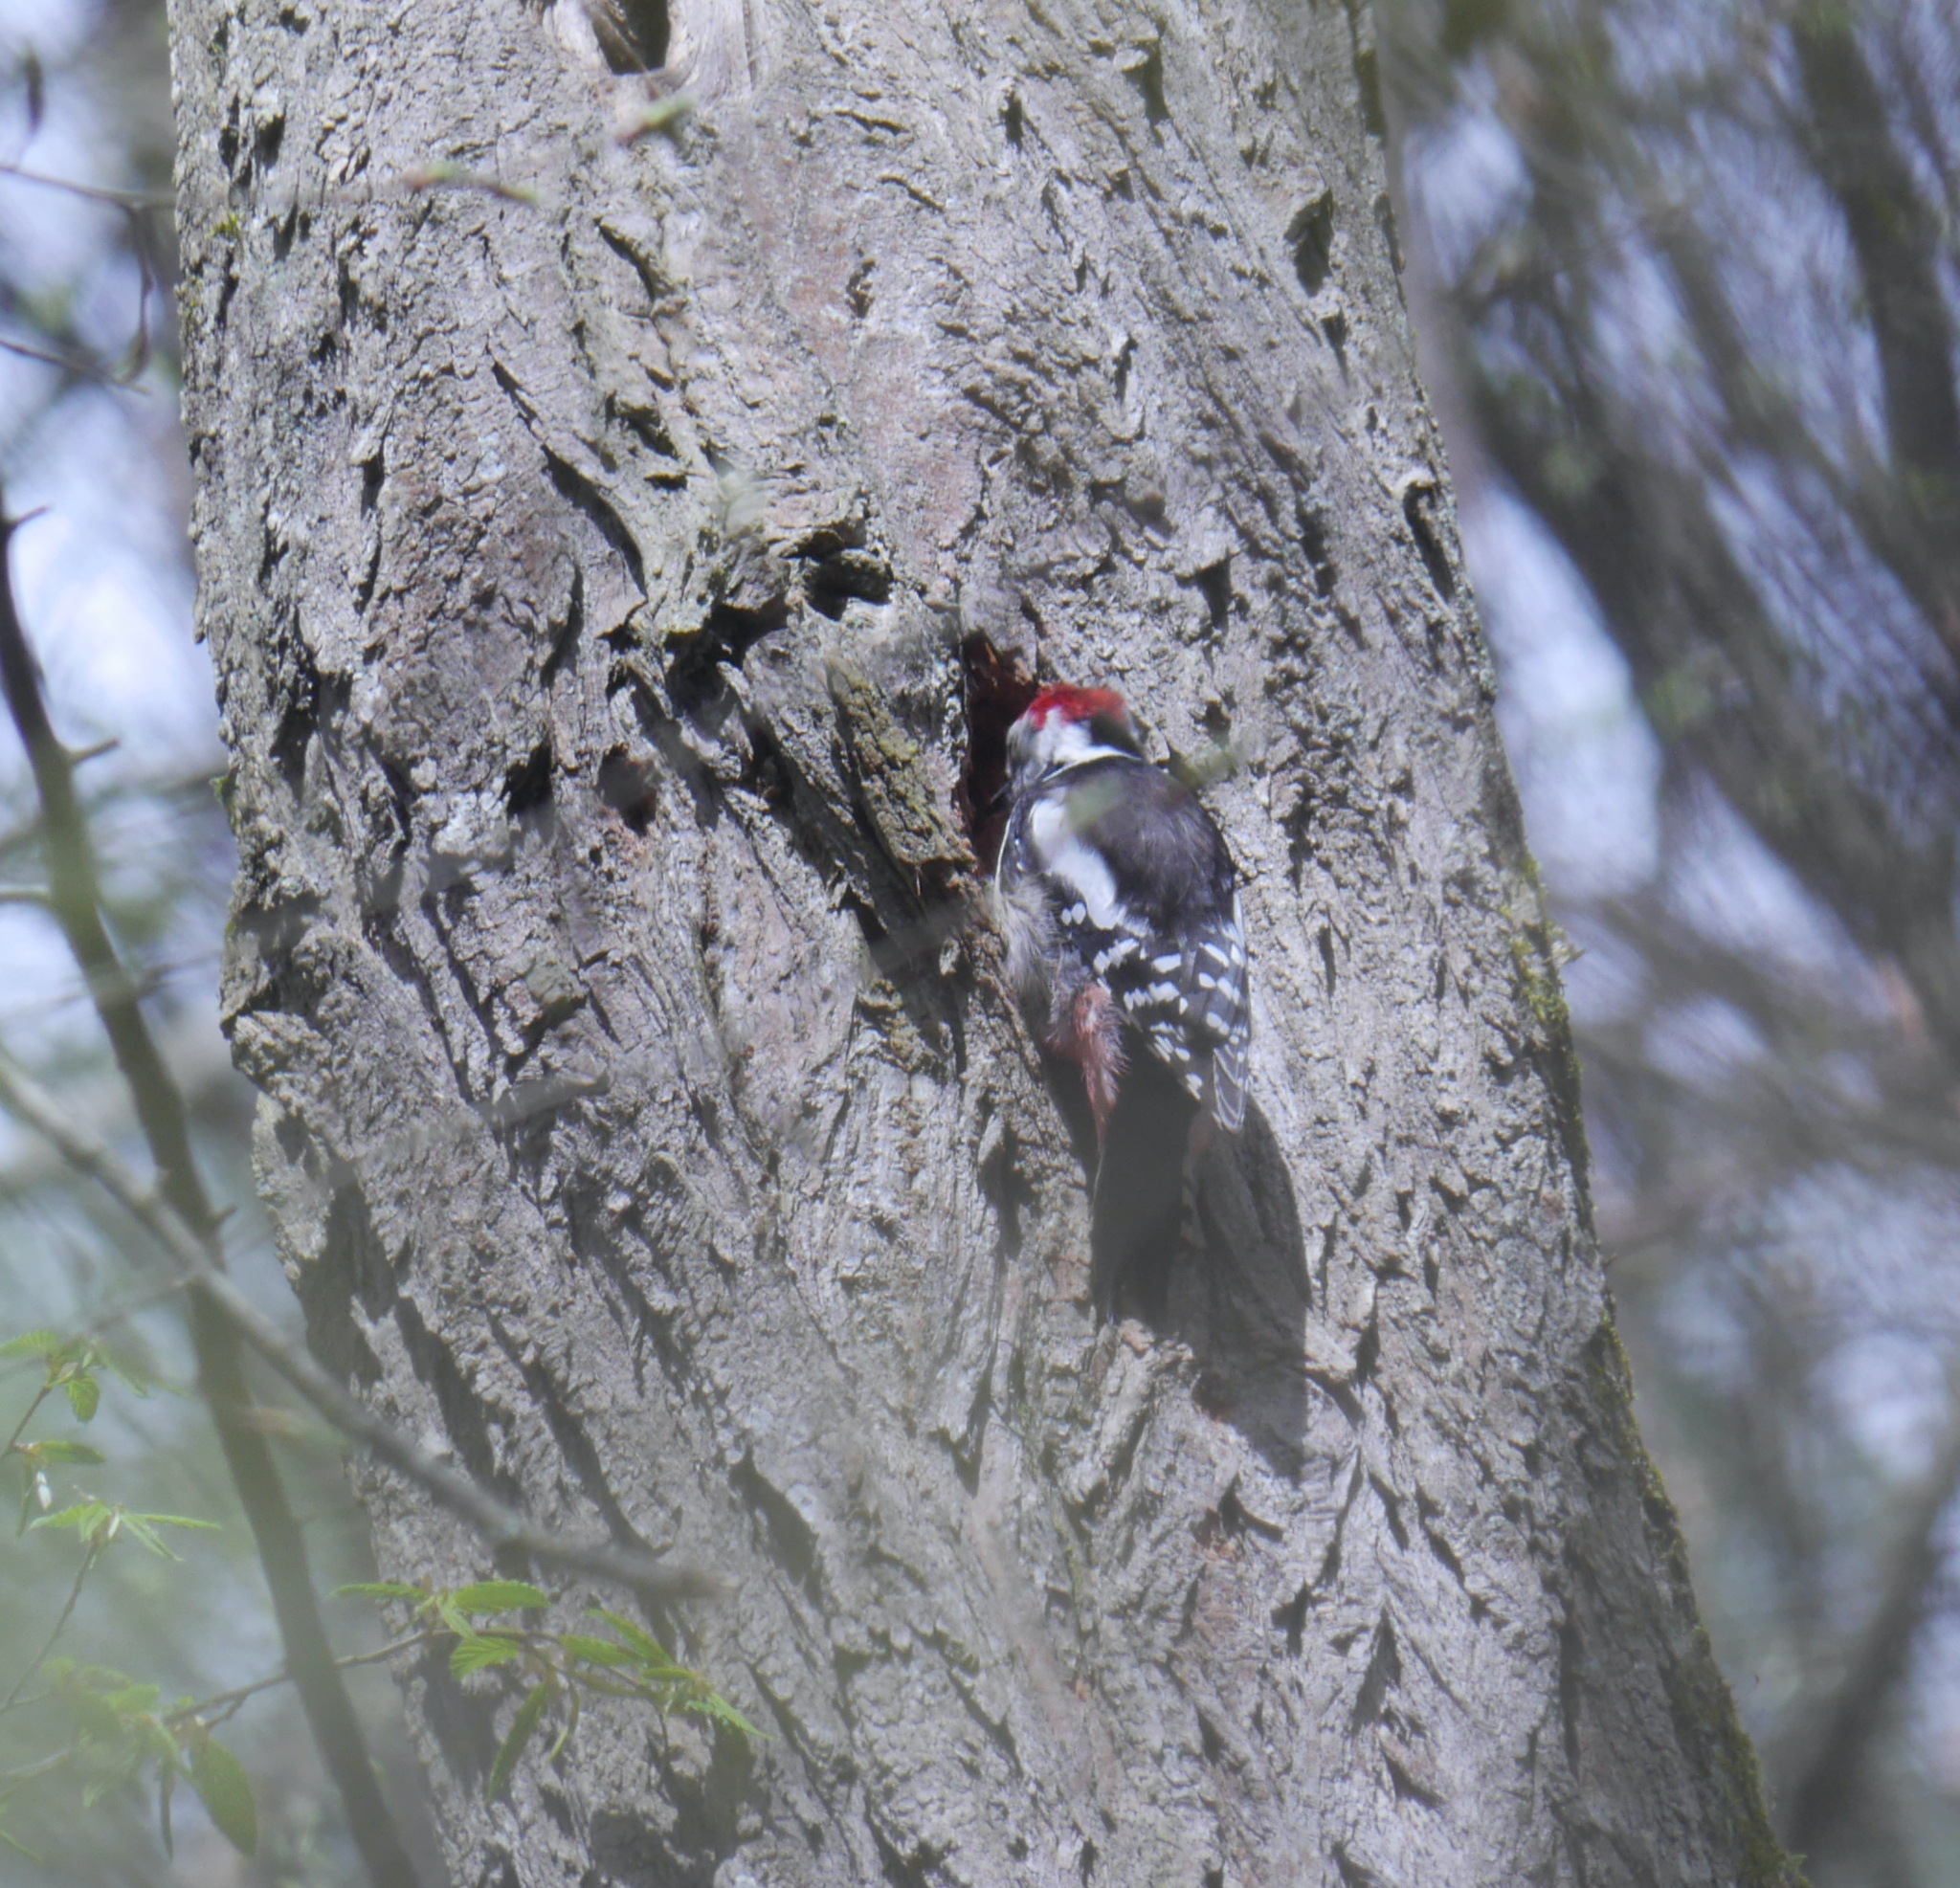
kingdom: Animalia
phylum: Chordata
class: Aves
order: Piciformes
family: Picidae
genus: Dendrocoptes
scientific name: Dendrocoptes medius
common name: Middle spotted woodpecker
